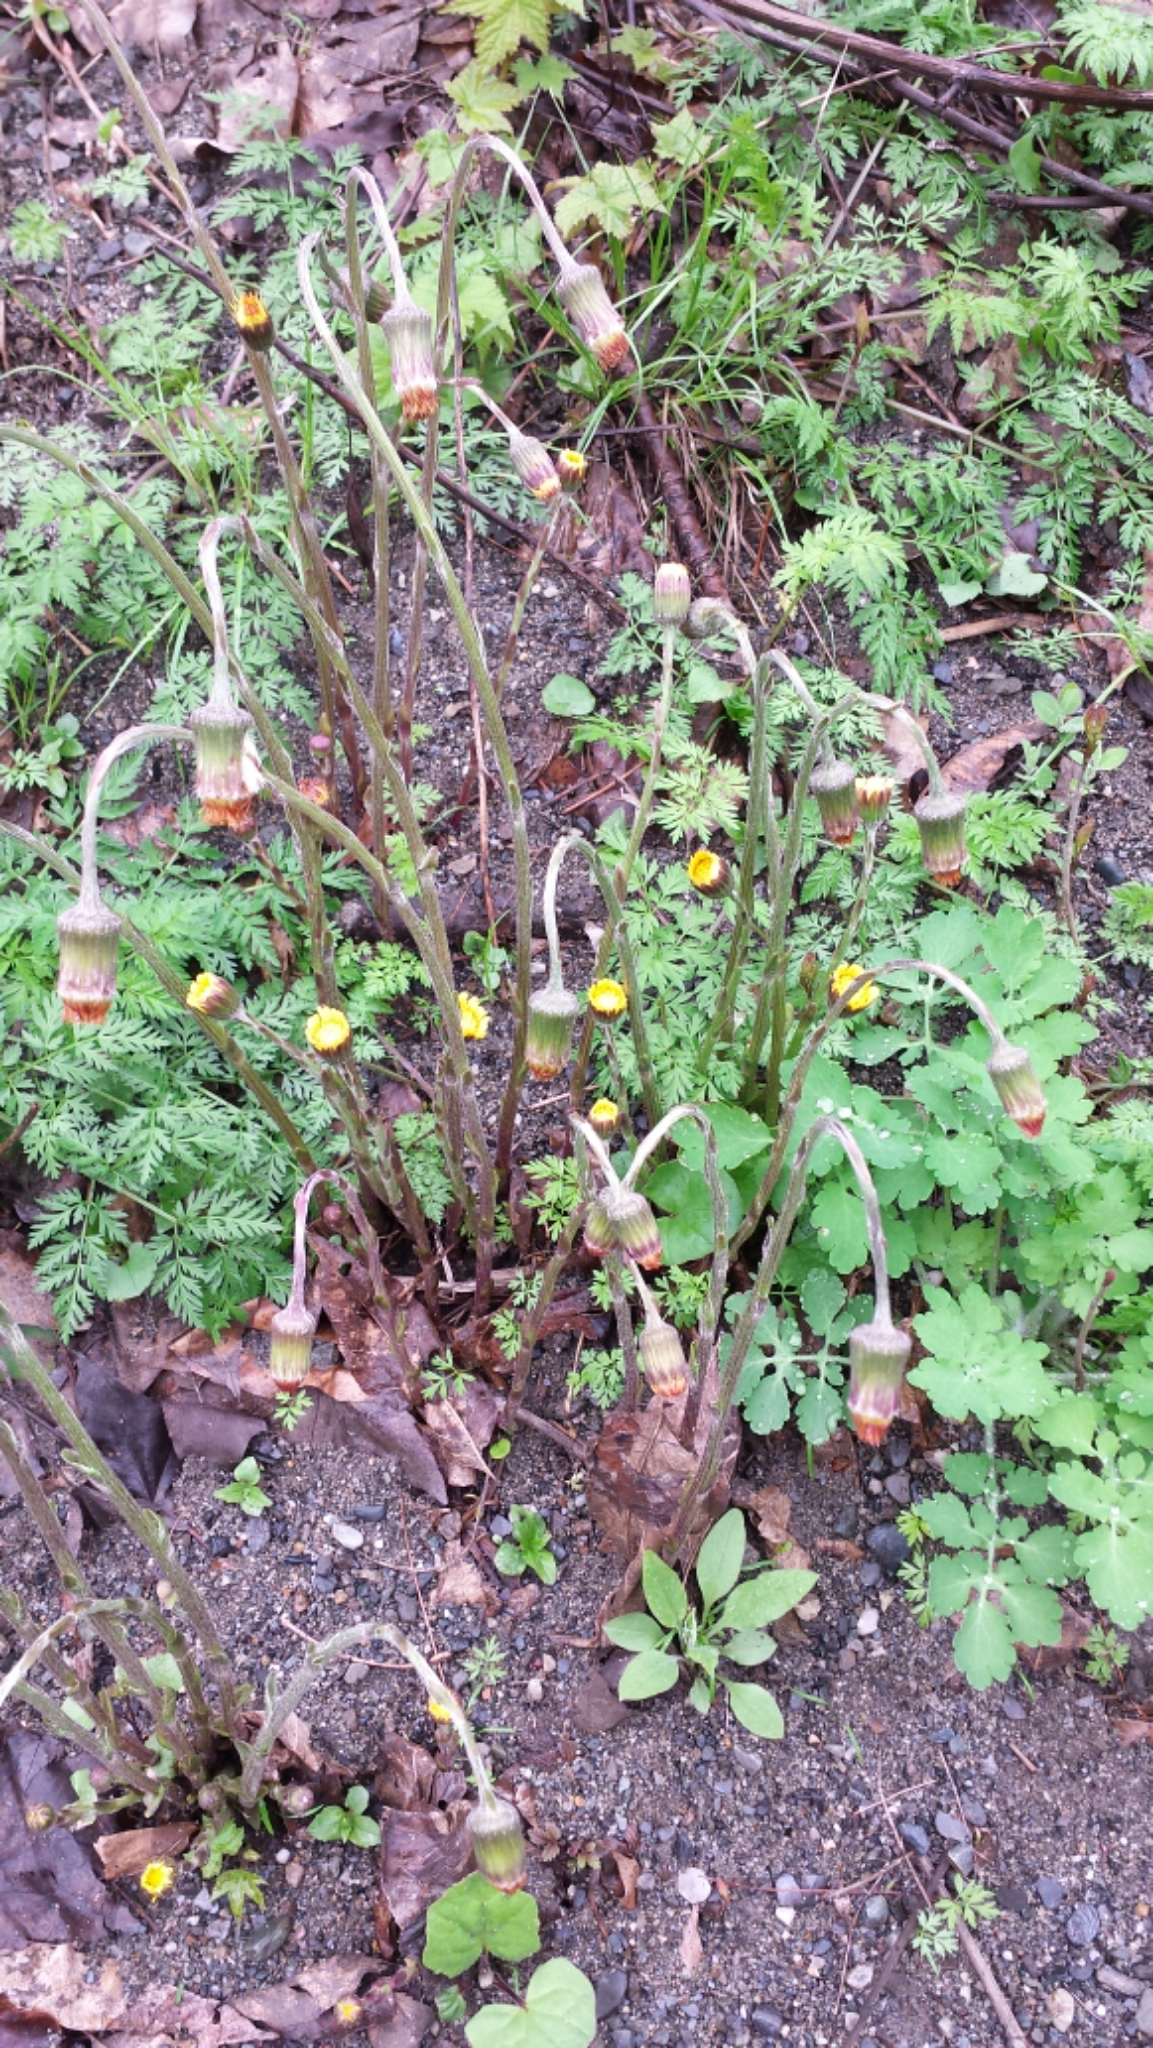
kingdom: Plantae
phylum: Tracheophyta
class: Magnoliopsida
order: Asterales
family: Asteraceae
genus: Tussilago
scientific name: Tussilago farfara
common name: Coltsfoot
